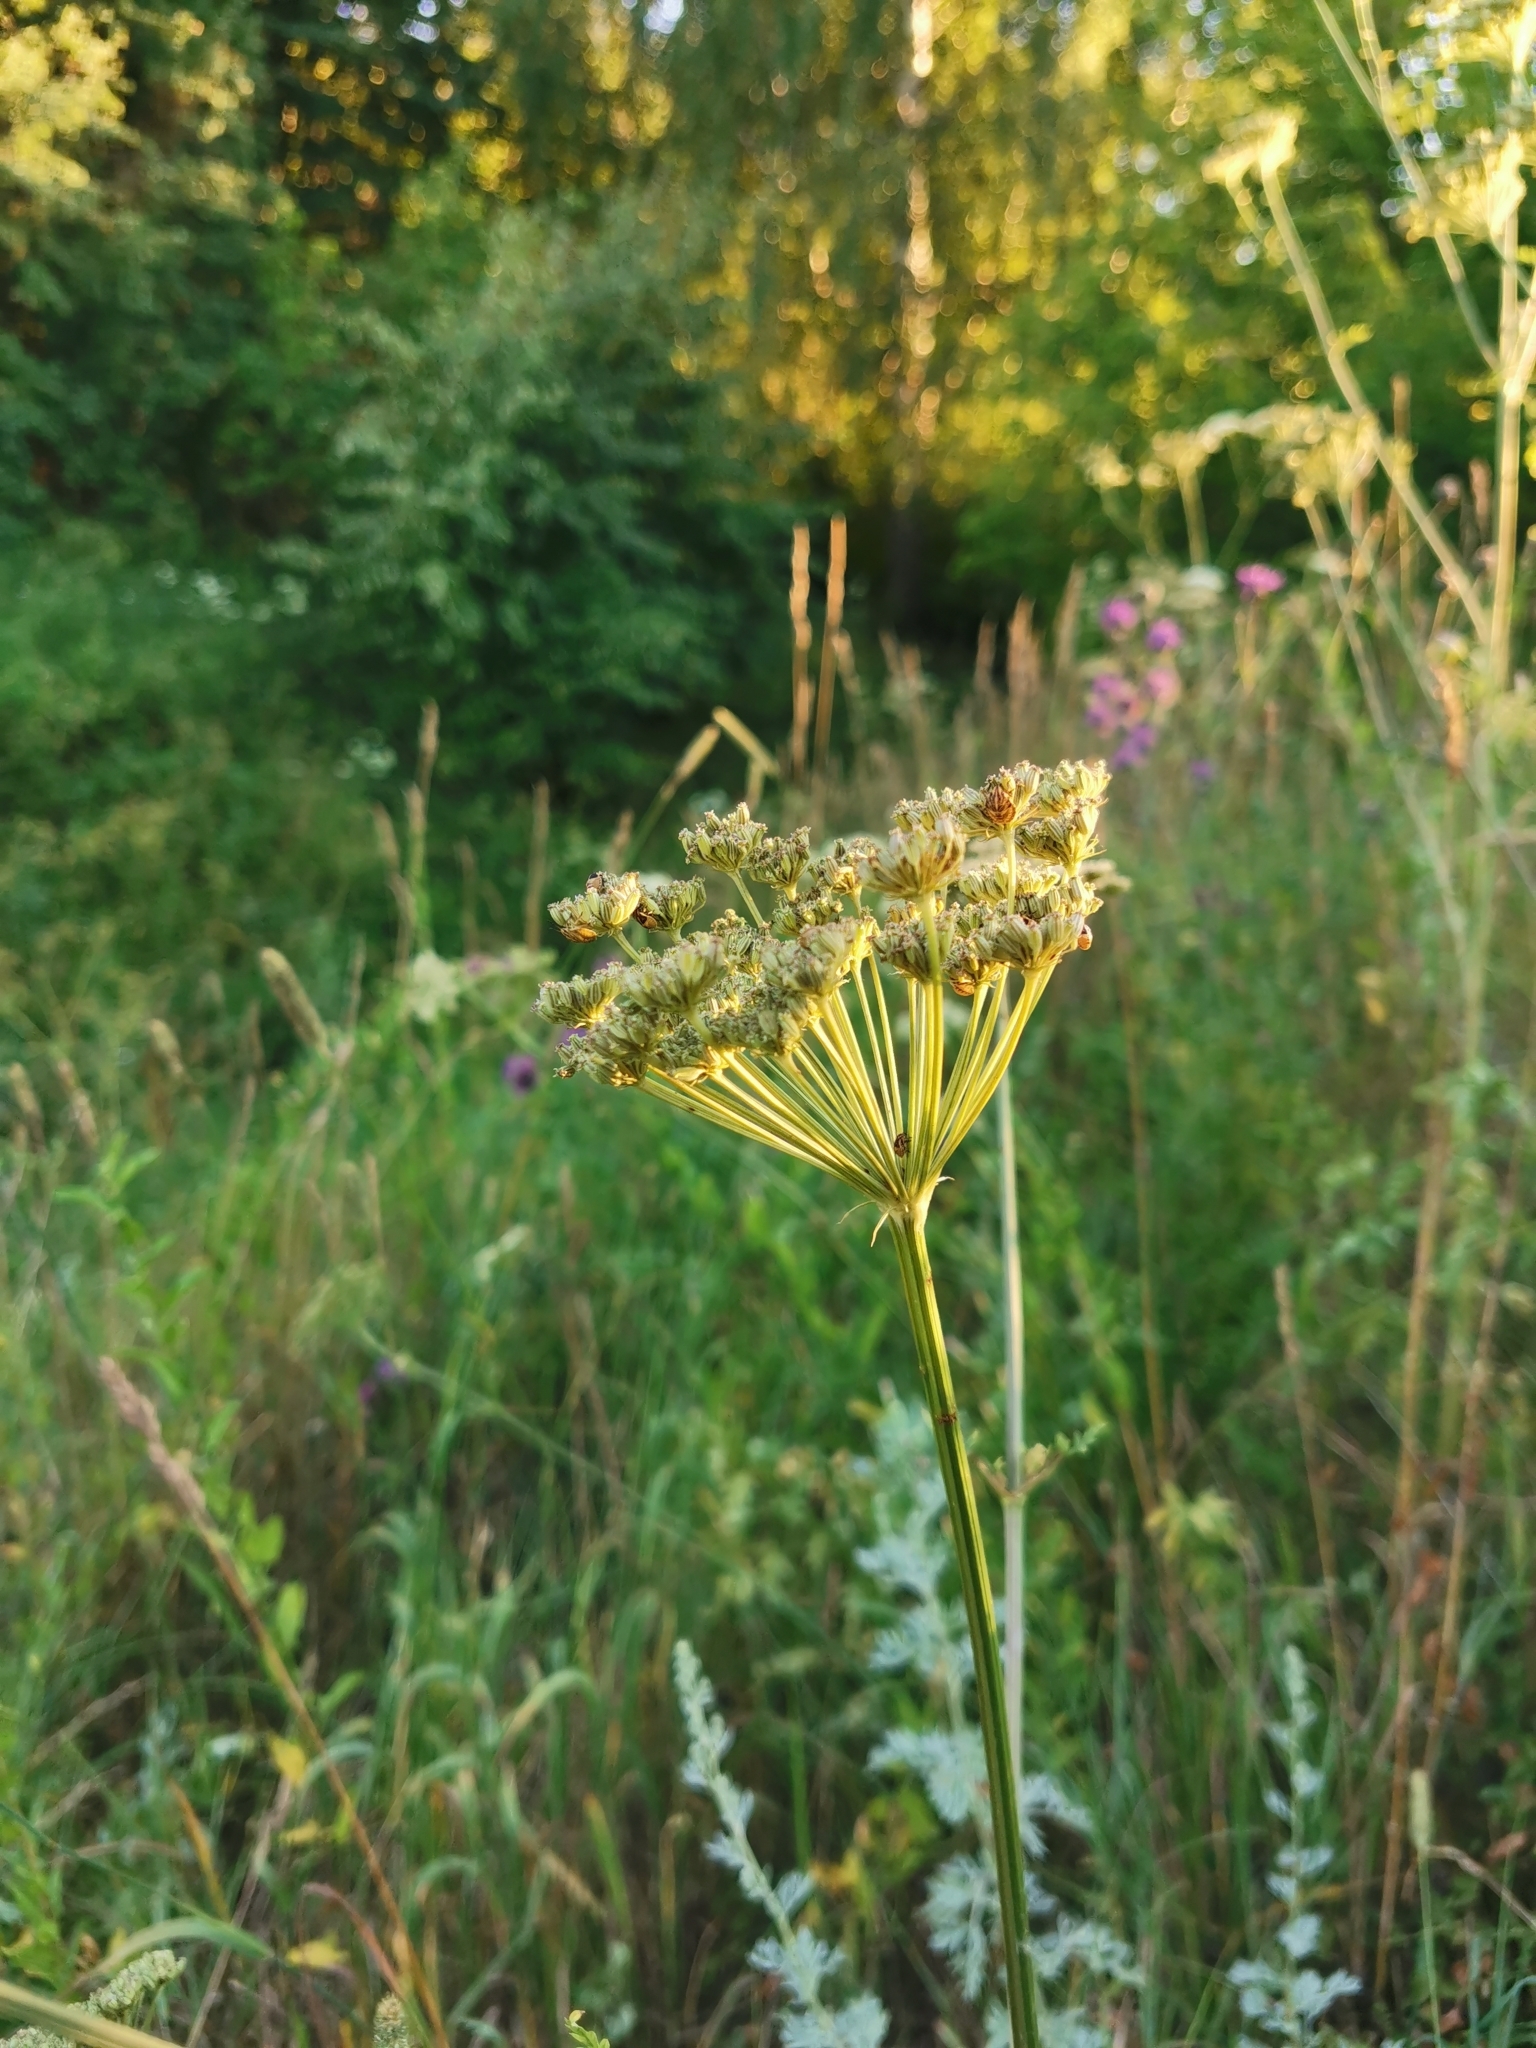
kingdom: Plantae
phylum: Tracheophyta
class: Magnoliopsida
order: Apiales
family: Apiaceae
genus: Seseli
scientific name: Seseli libanotis
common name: Mooncarrot
